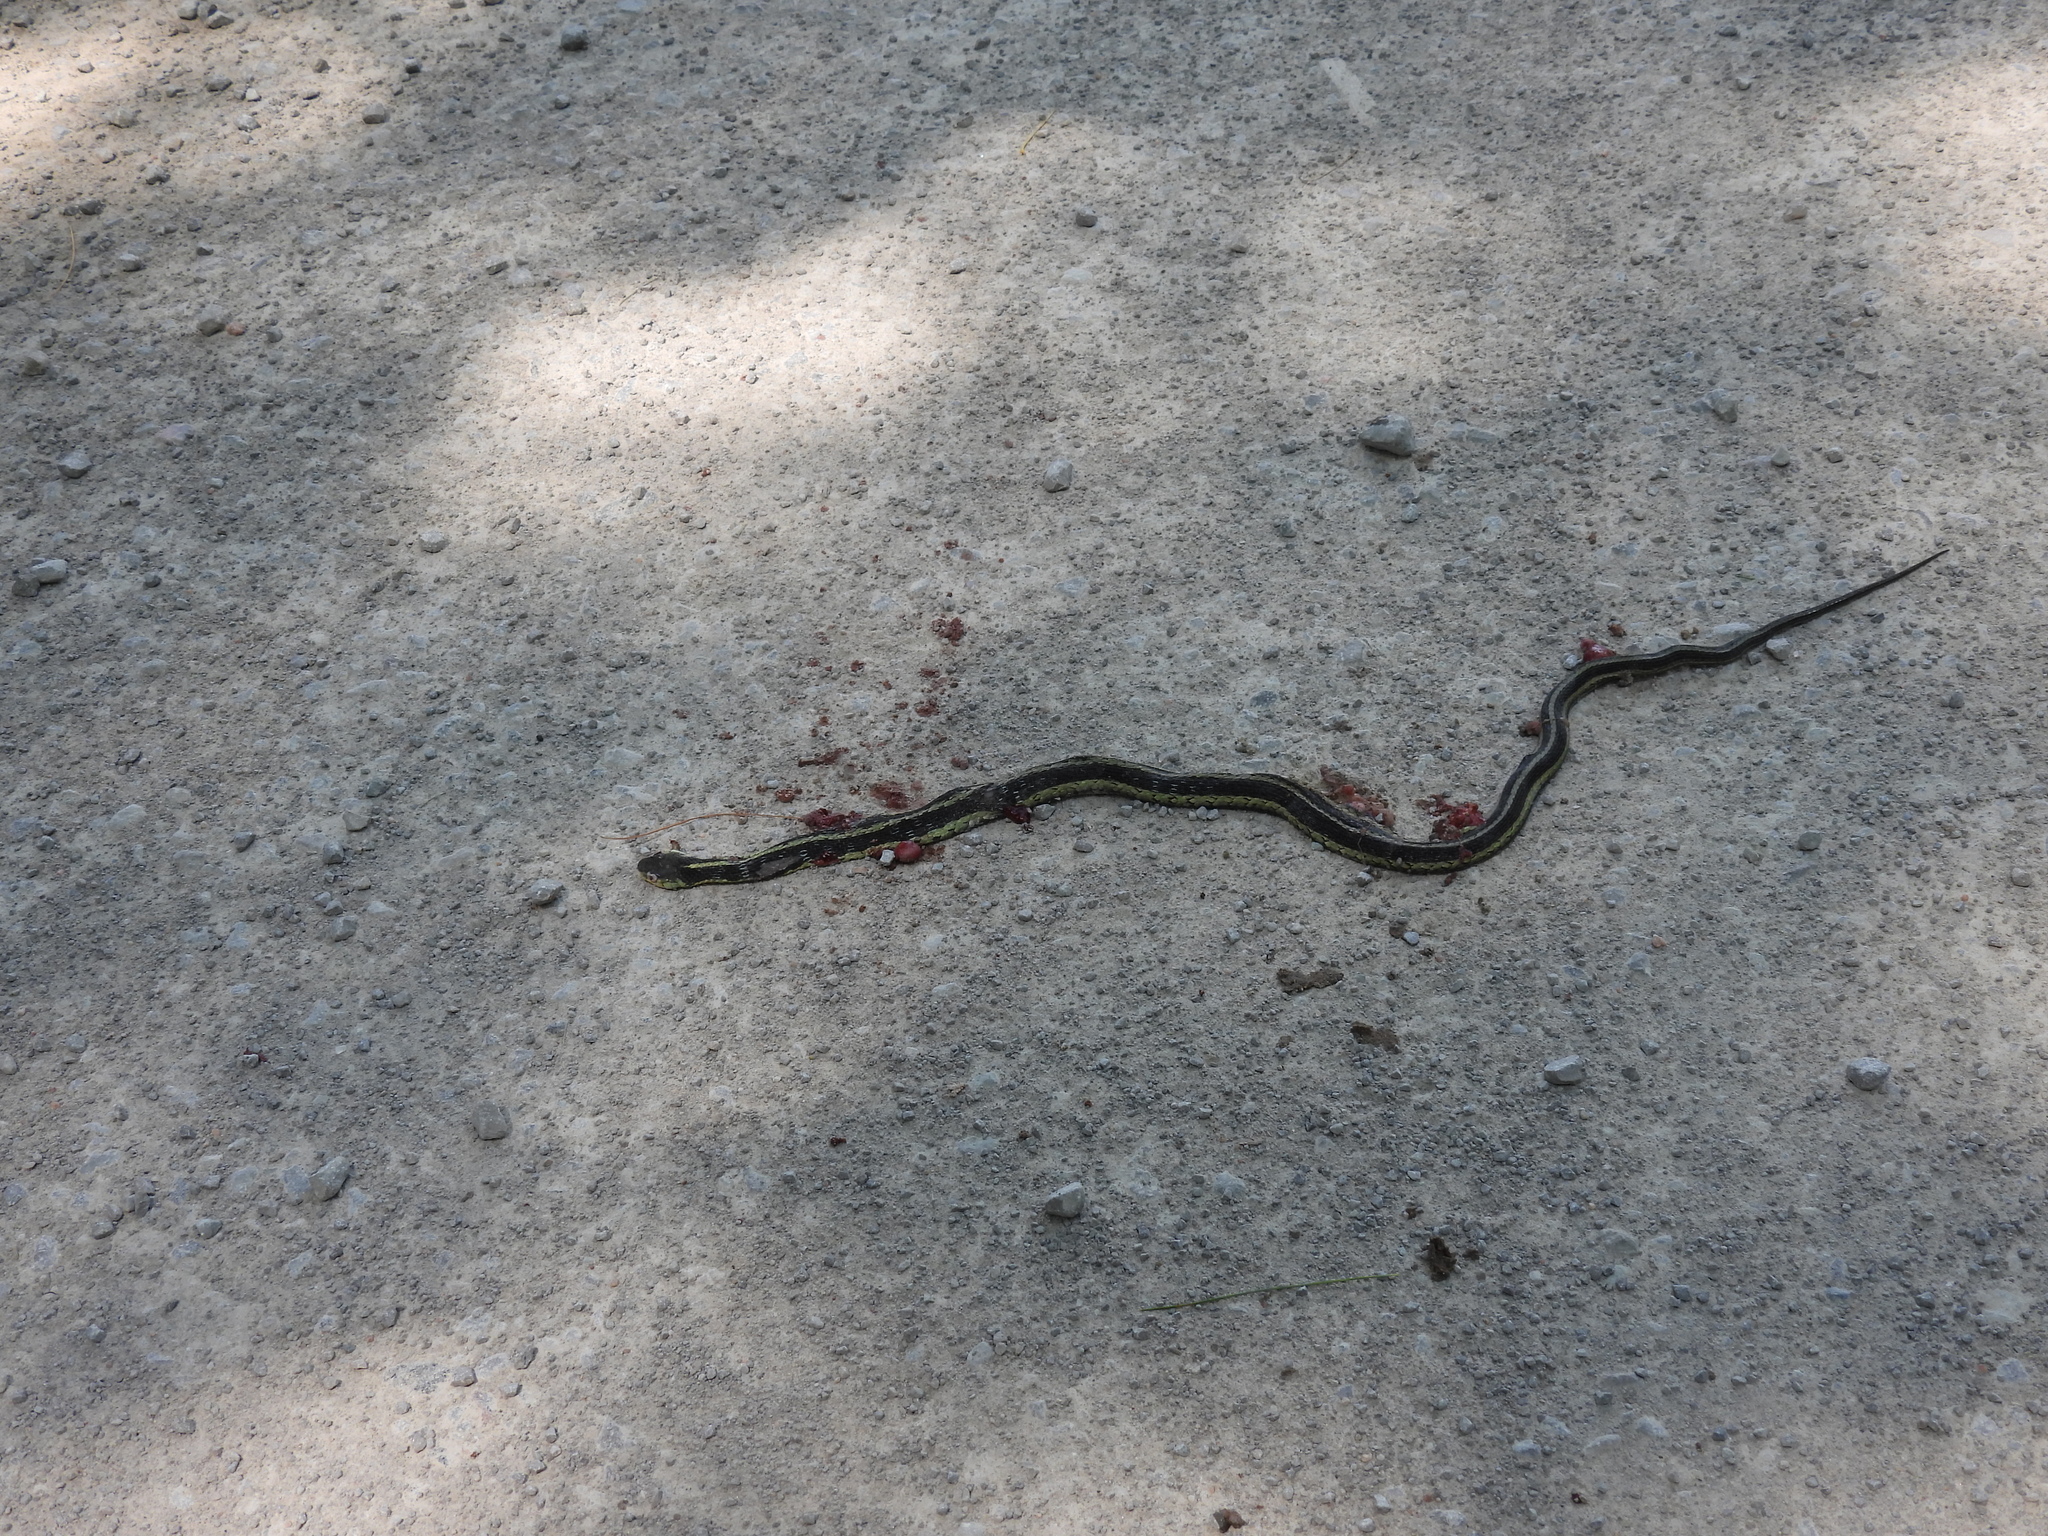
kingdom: Animalia
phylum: Chordata
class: Squamata
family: Colubridae
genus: Thamnophis
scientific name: Thamnophis sirtalis
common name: Common garter snake
